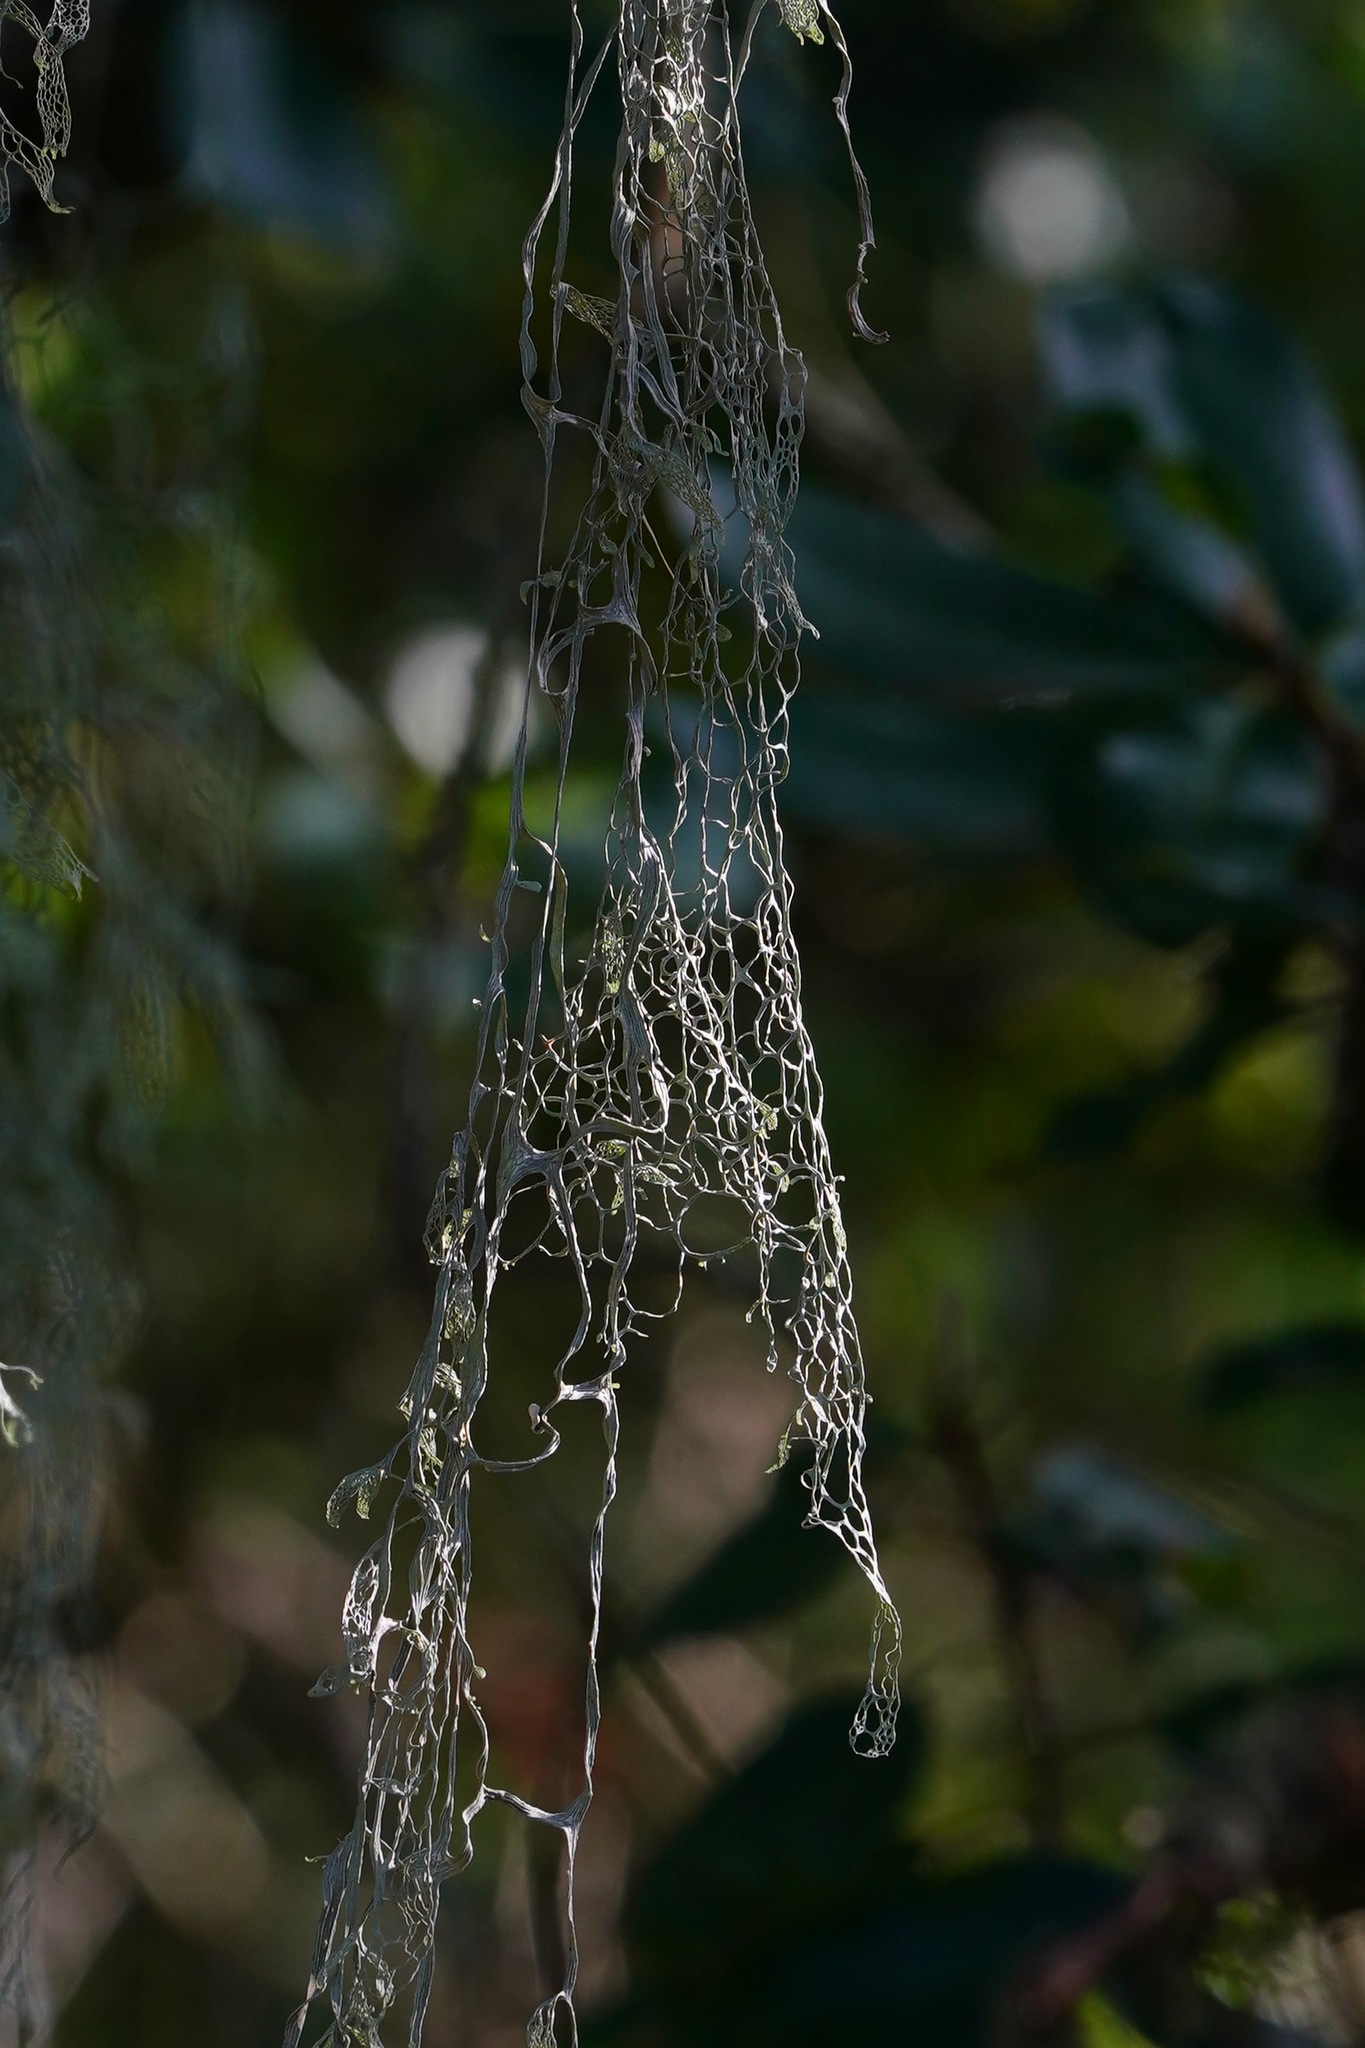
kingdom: Fungi
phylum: Ascomycota
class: Lecanoromycetes
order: Lecanorales
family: Ramalinaceae
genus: Ramalina
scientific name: Ramalina menziesii
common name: Lace lichen
